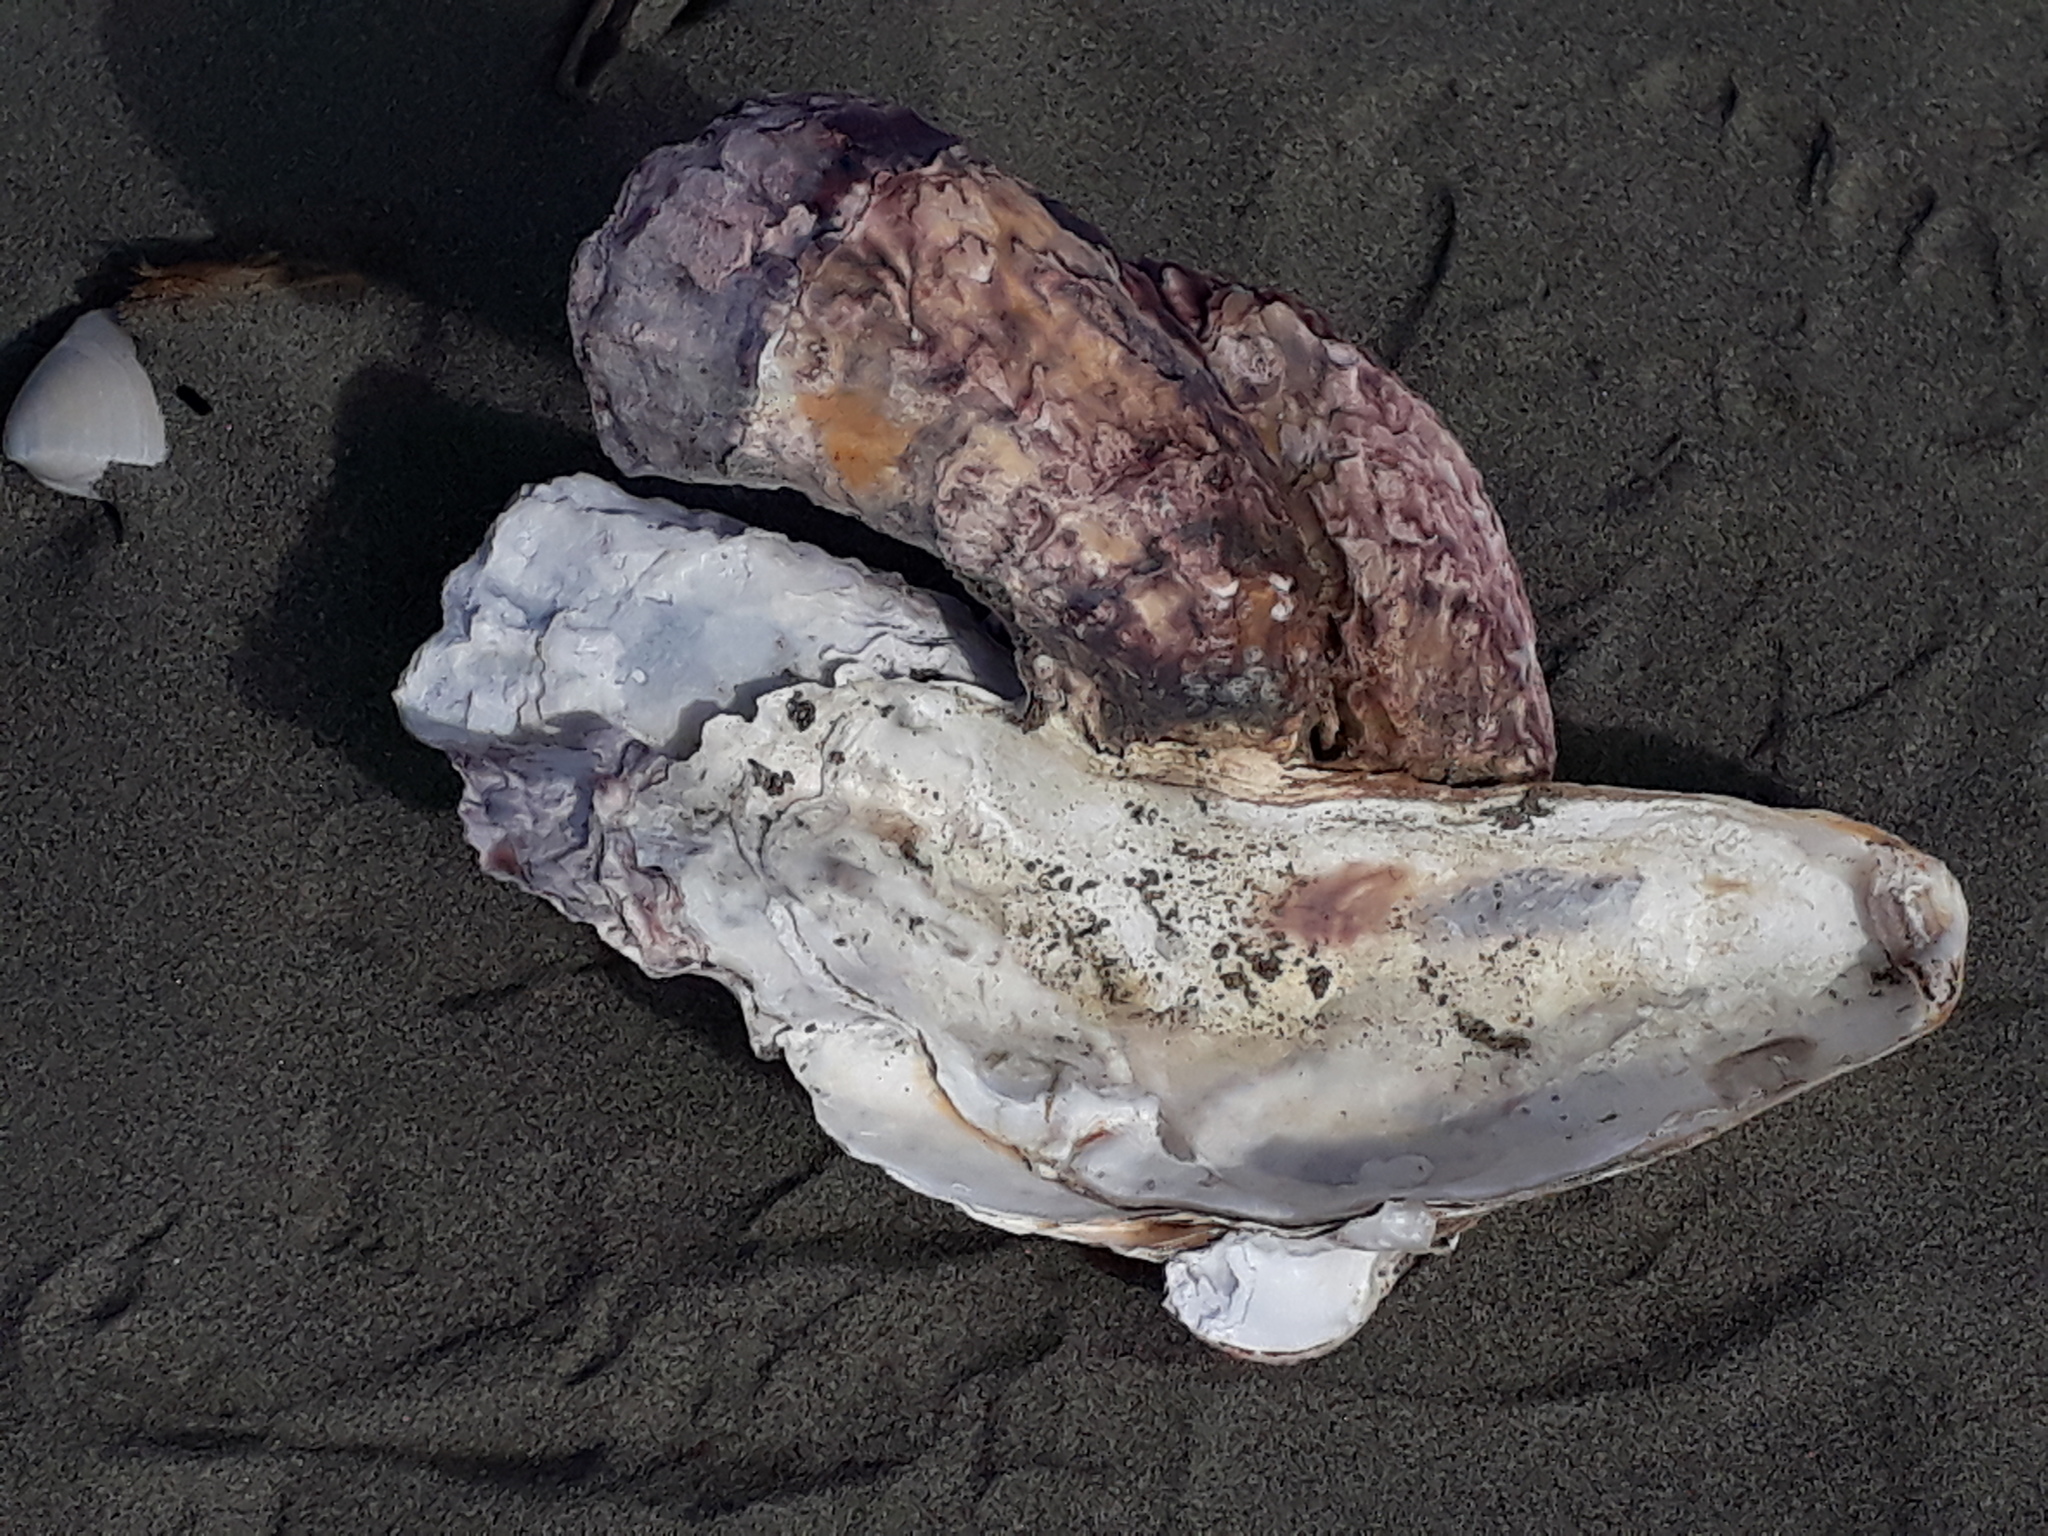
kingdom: Animalia
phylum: Mollusca
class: Bivalvia
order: Ostreida
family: Ostreidae
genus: Magallana
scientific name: Magallana gigas
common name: Pacific oyster
